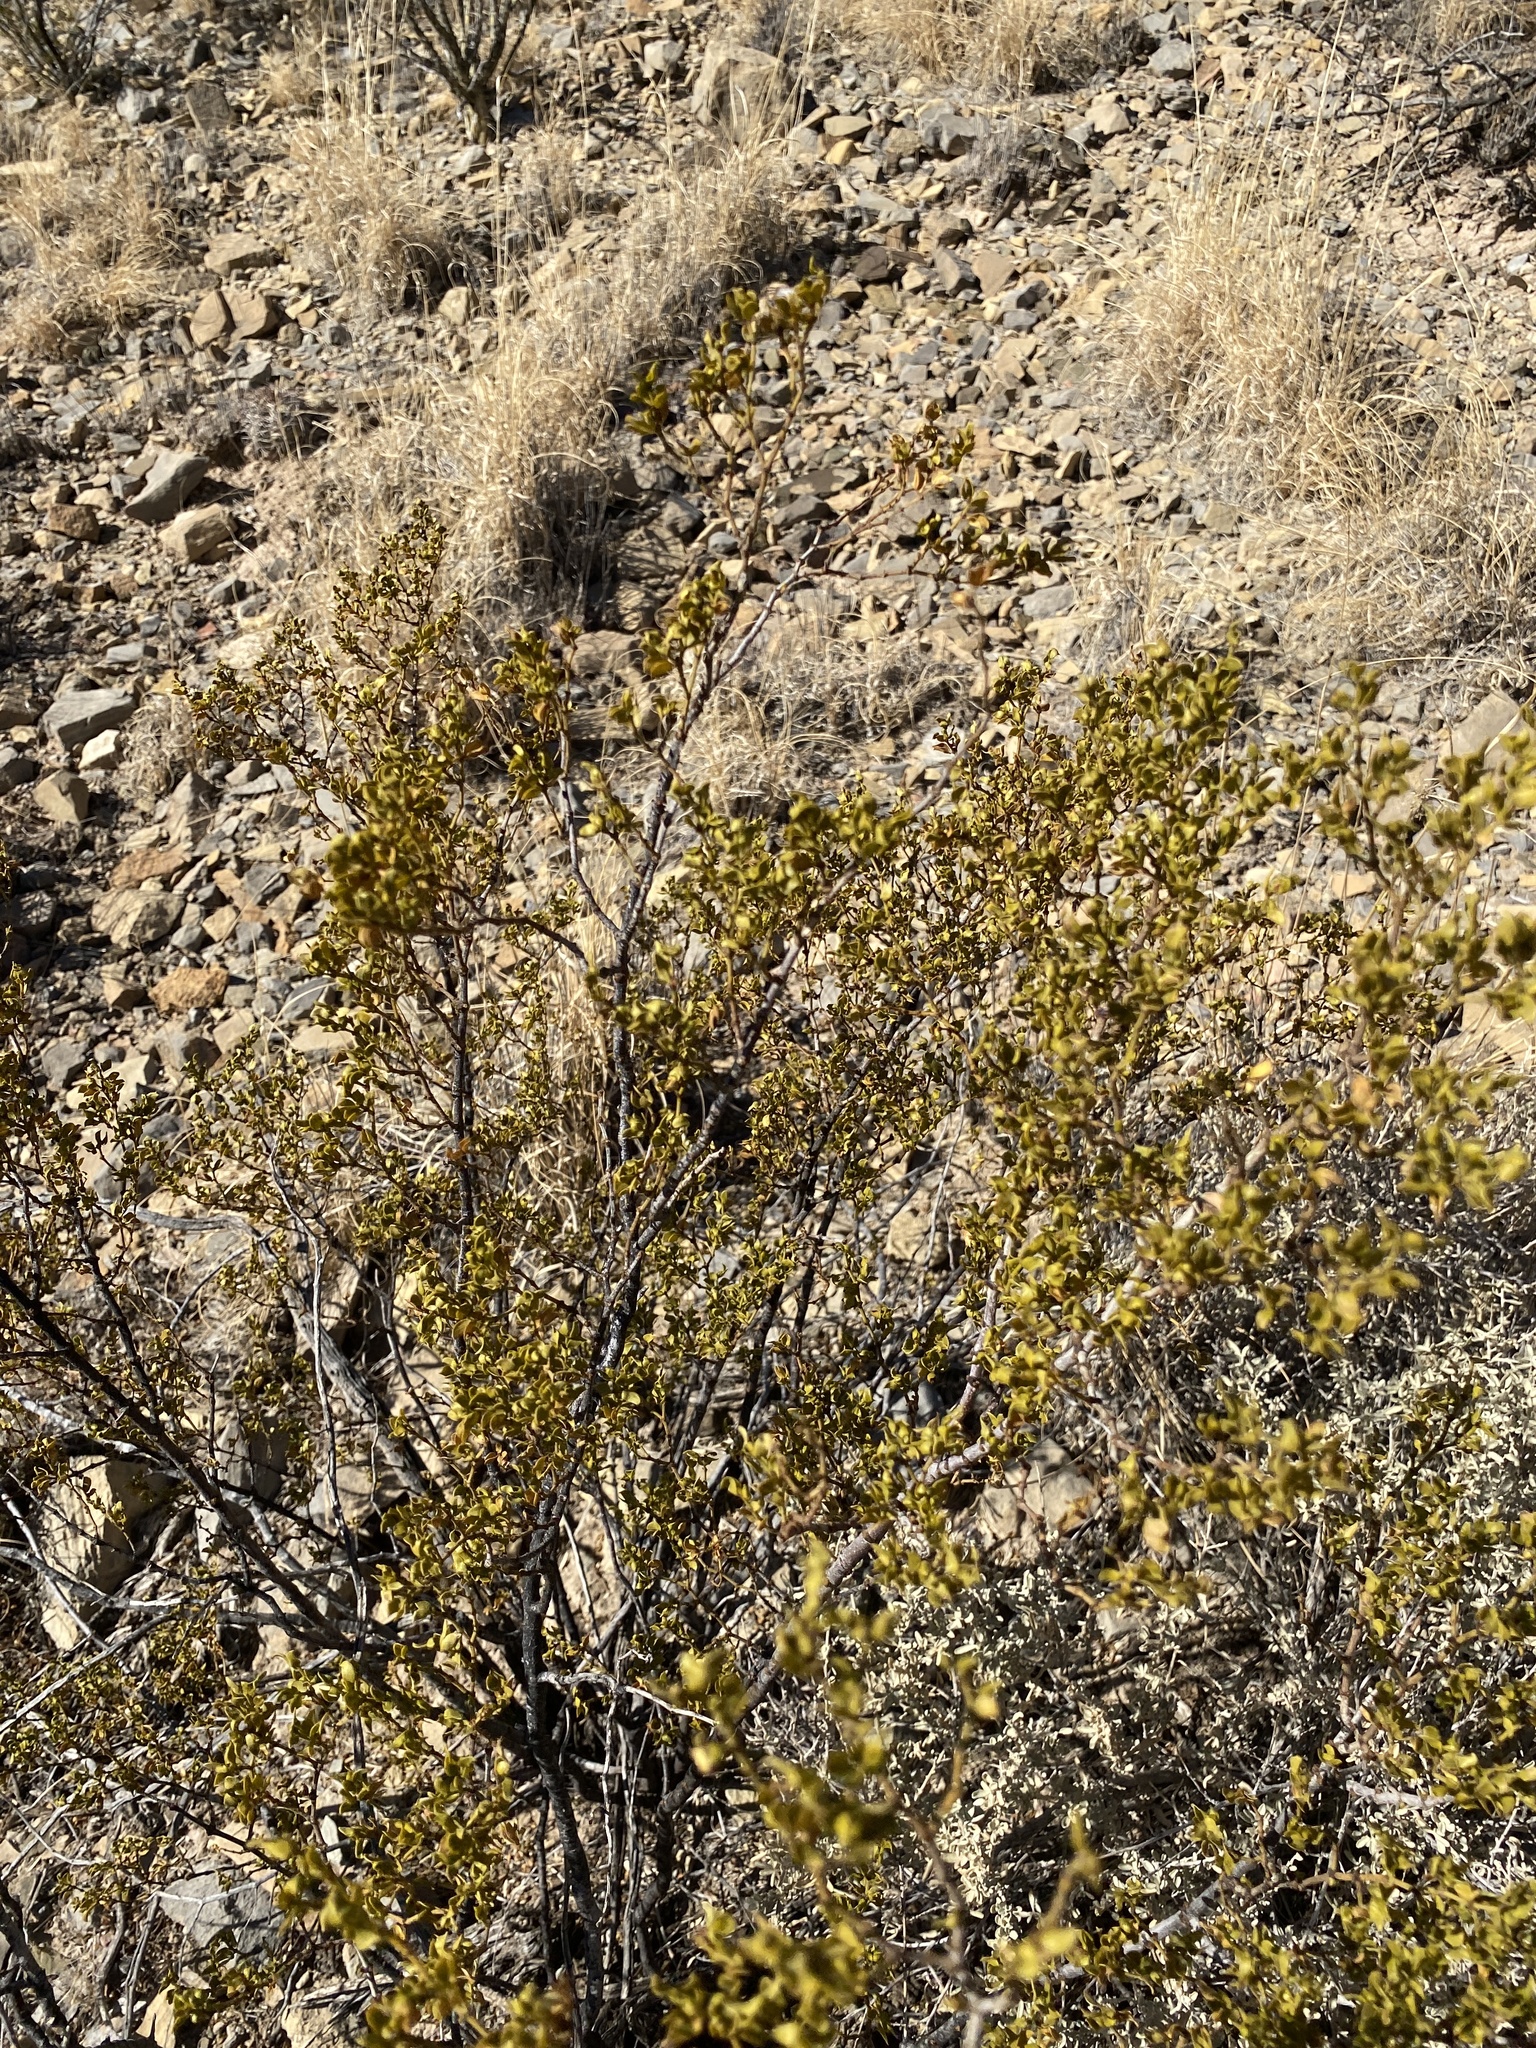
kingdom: Plantae
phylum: Tracheophyta
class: Magnoliopsida
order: Zygophyllales
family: Zygophyllaceae
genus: Larrea
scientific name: Larrea tridentata
